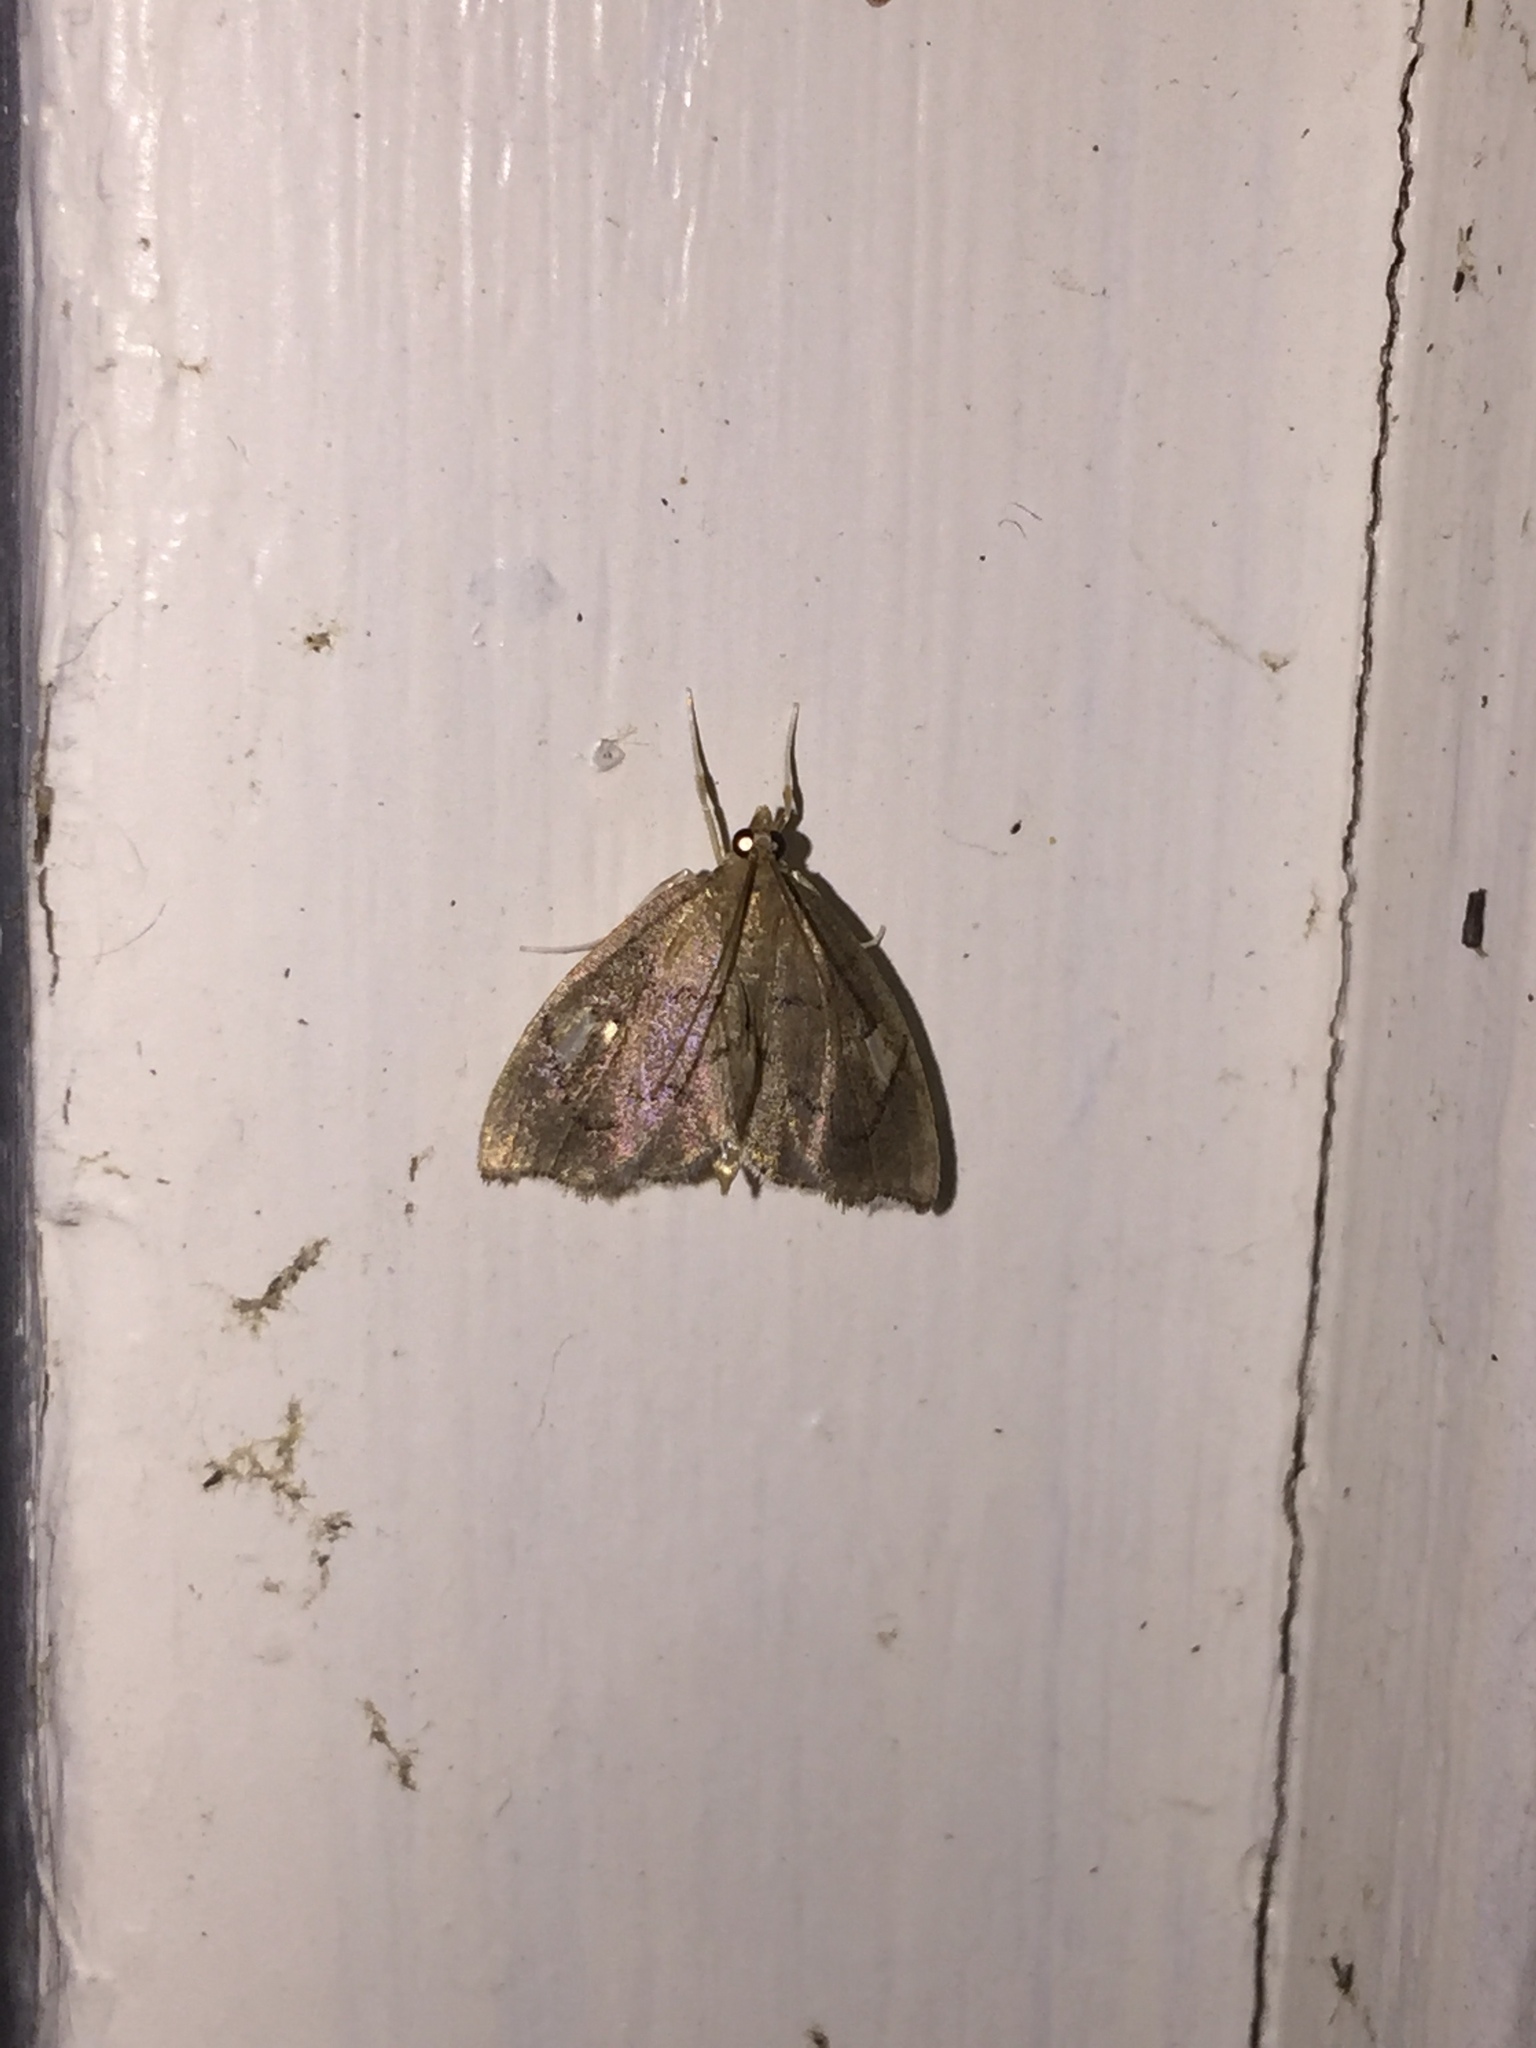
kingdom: Animalia
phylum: Arthropoda
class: Insecta
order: Lepidoptera
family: Crambidae
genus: Perispasta
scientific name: Perispasta caeculalis
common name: Titian peale's moth
